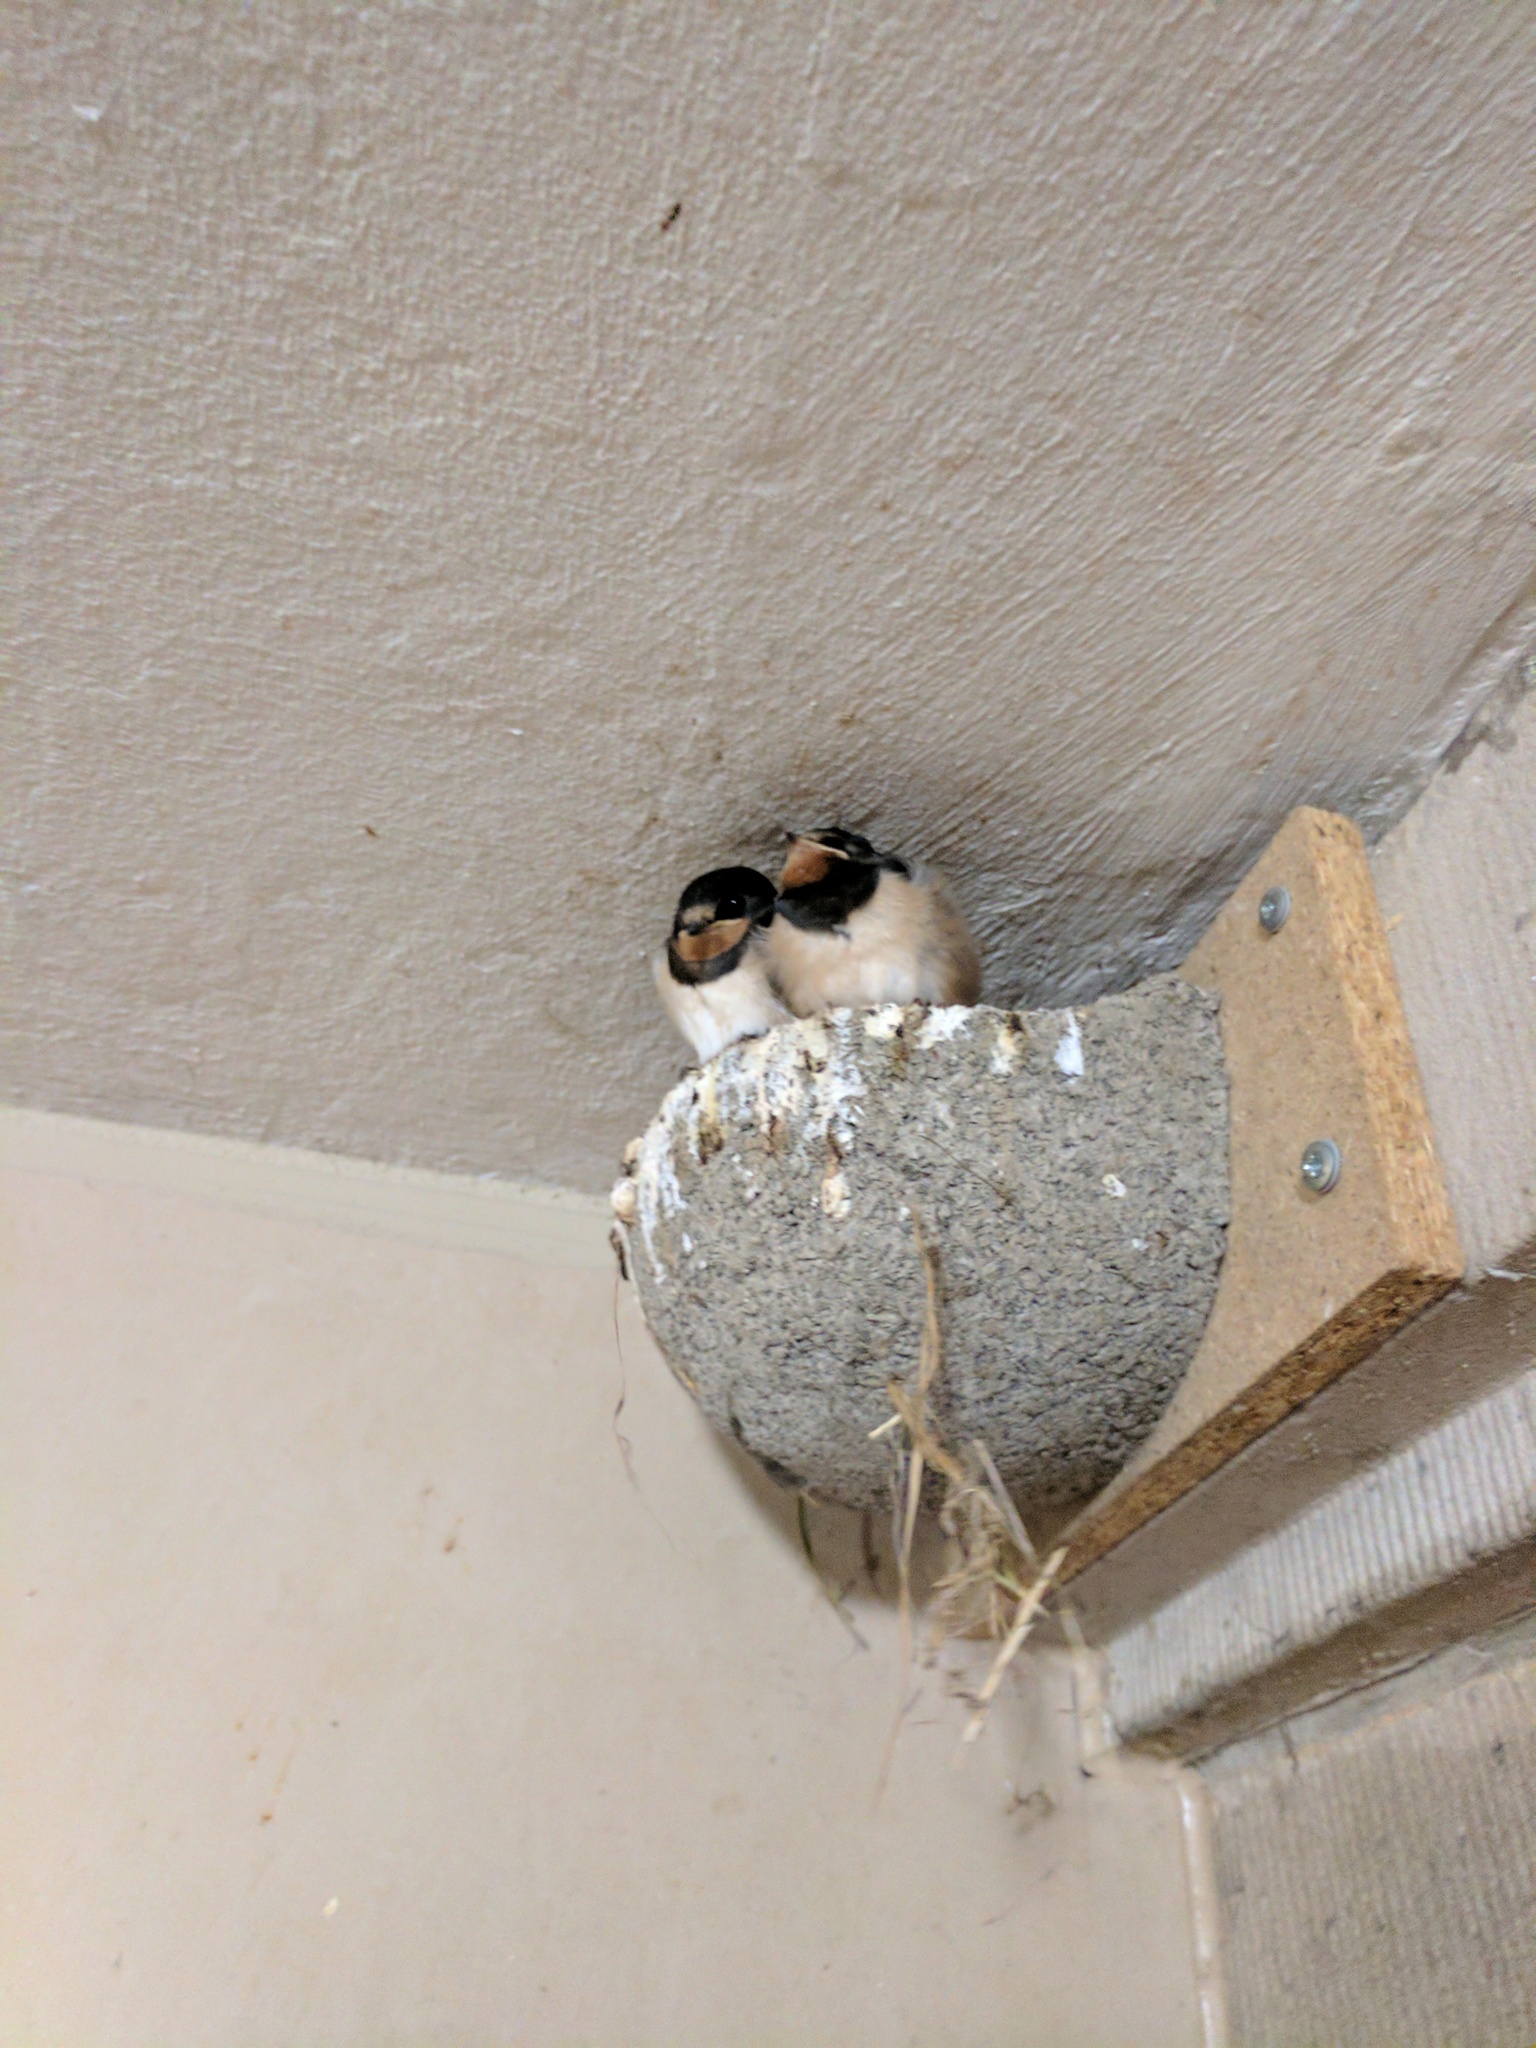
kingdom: Animalia
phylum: Chordata
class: Aves
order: Passeriformes
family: Hirundinidae
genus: Hirundo
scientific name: Hirundo rustica
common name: Barn swallow
